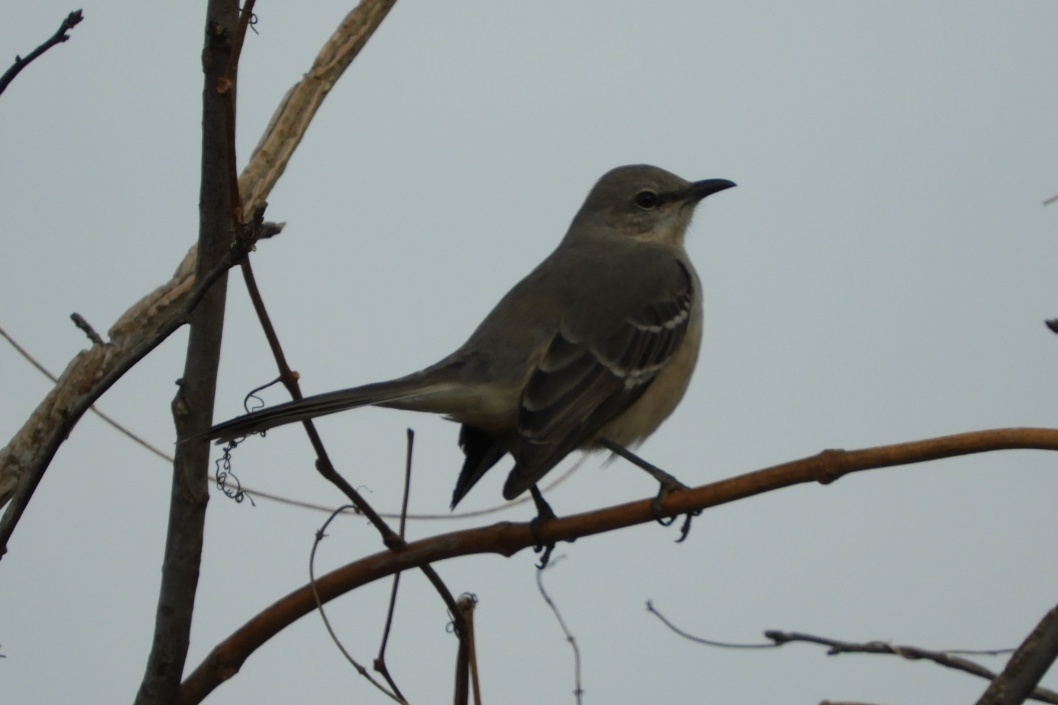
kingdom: Animalia
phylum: Chordata
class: Aves
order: Passeriformes
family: Mimidae
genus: Mimus
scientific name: Mimus polyglottos
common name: Northern mockingbird
